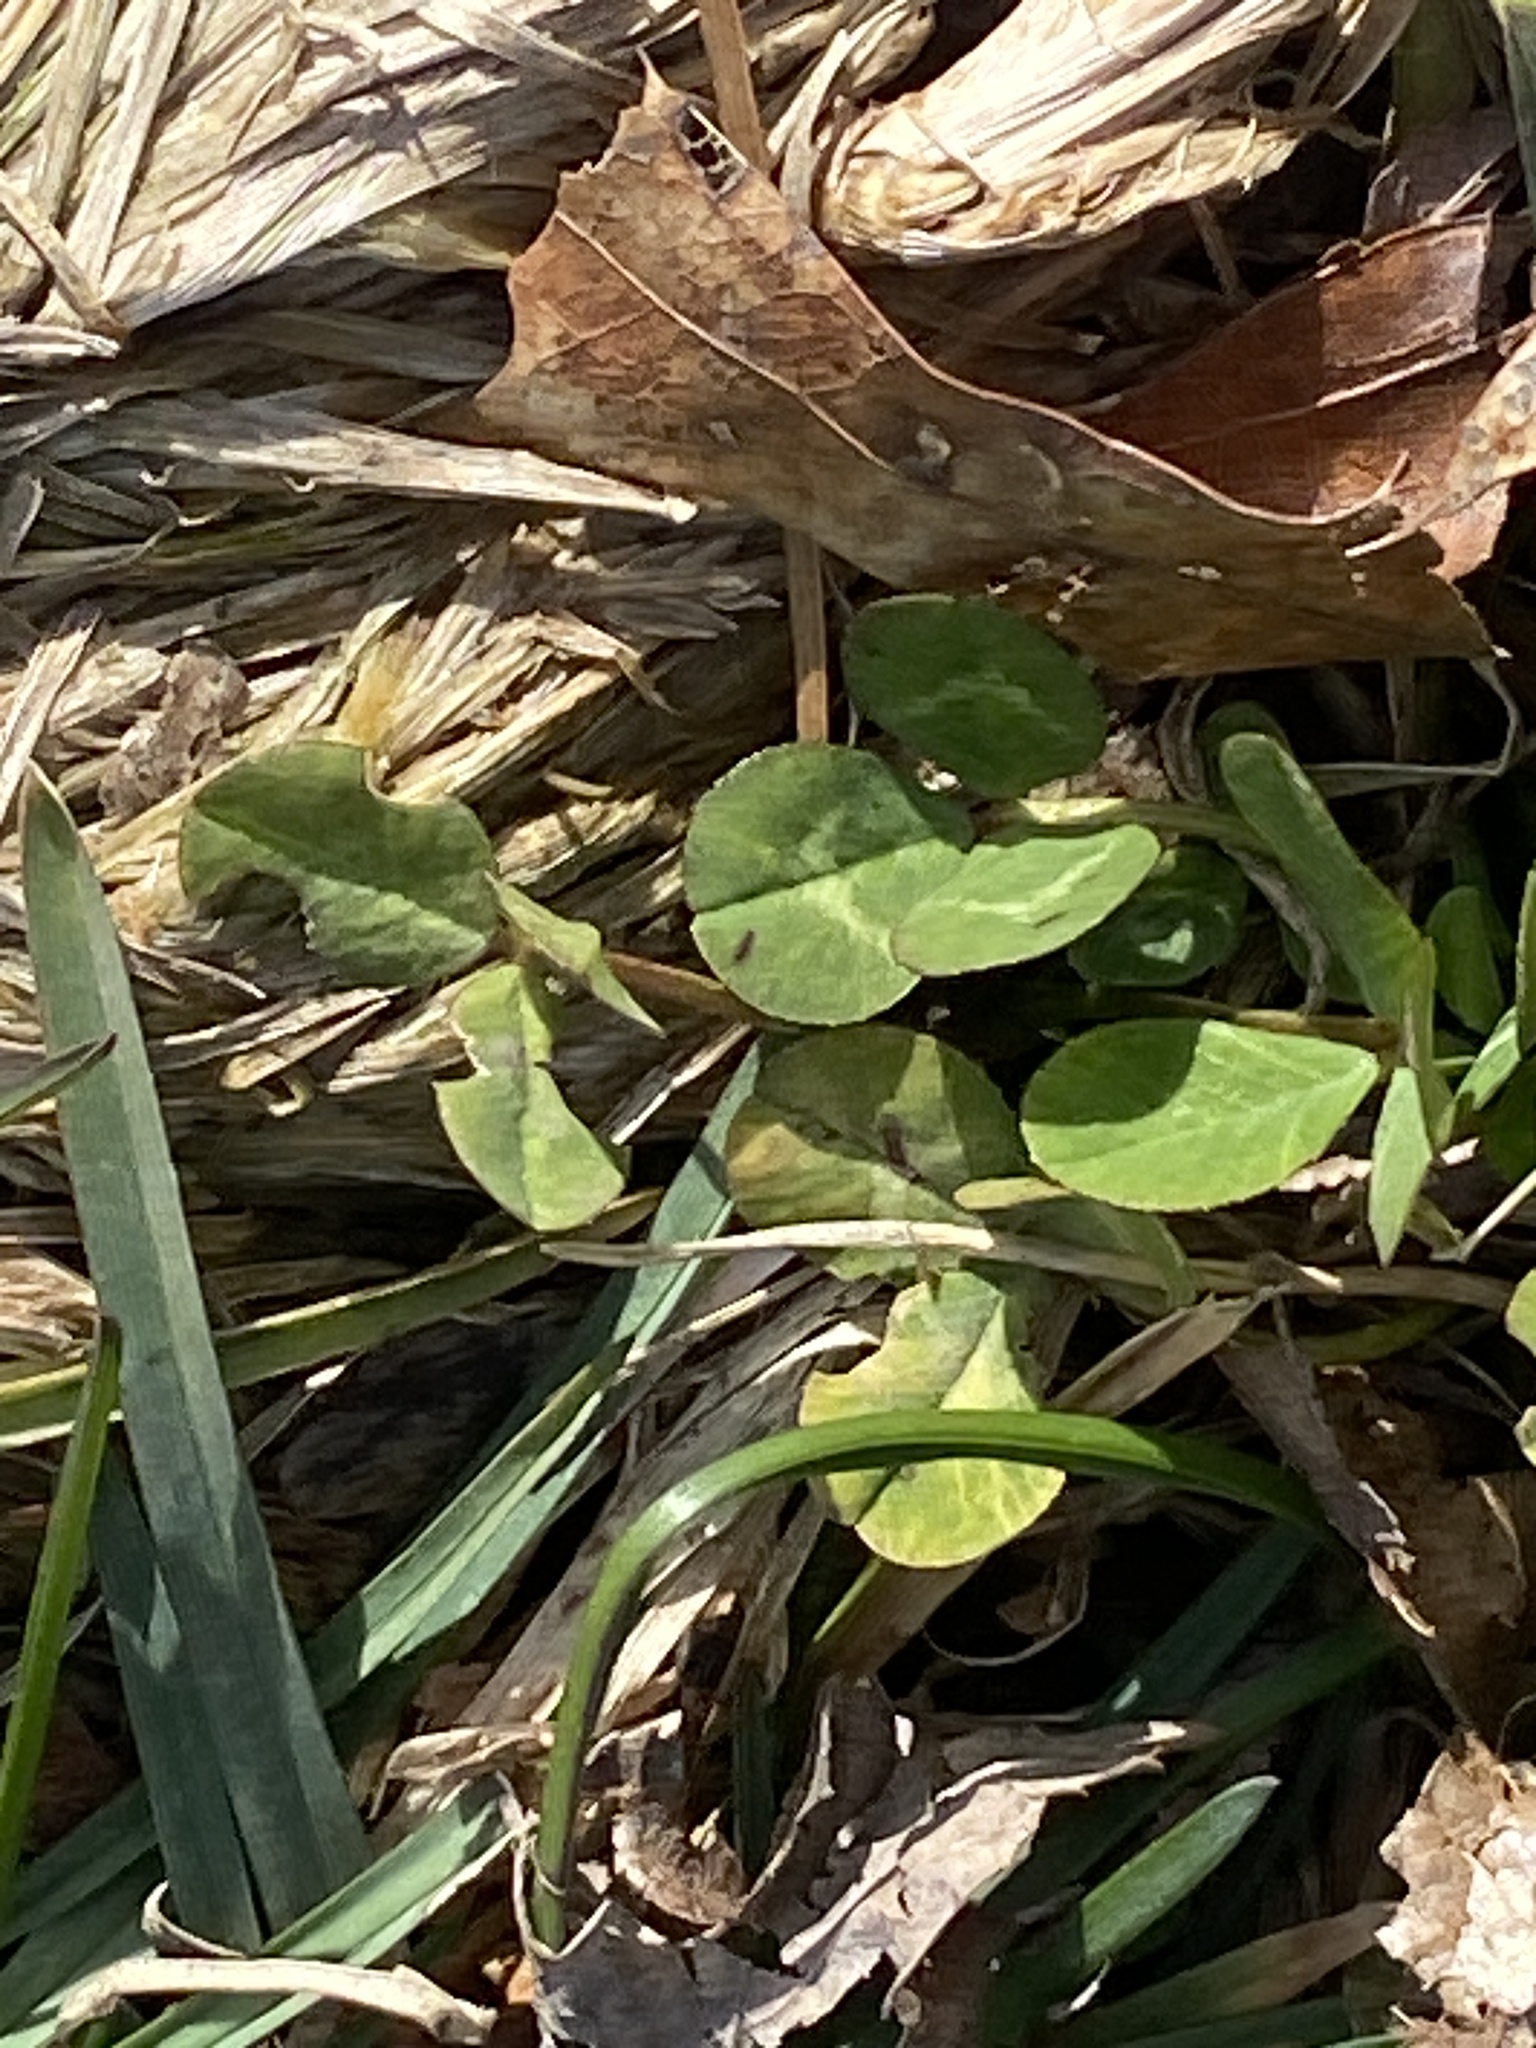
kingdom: Plantae
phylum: Tracheophyta
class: Magnoliopsida
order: Fabales
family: Fabaceae
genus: Trifolium
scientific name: Trifolium repens
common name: White clover
